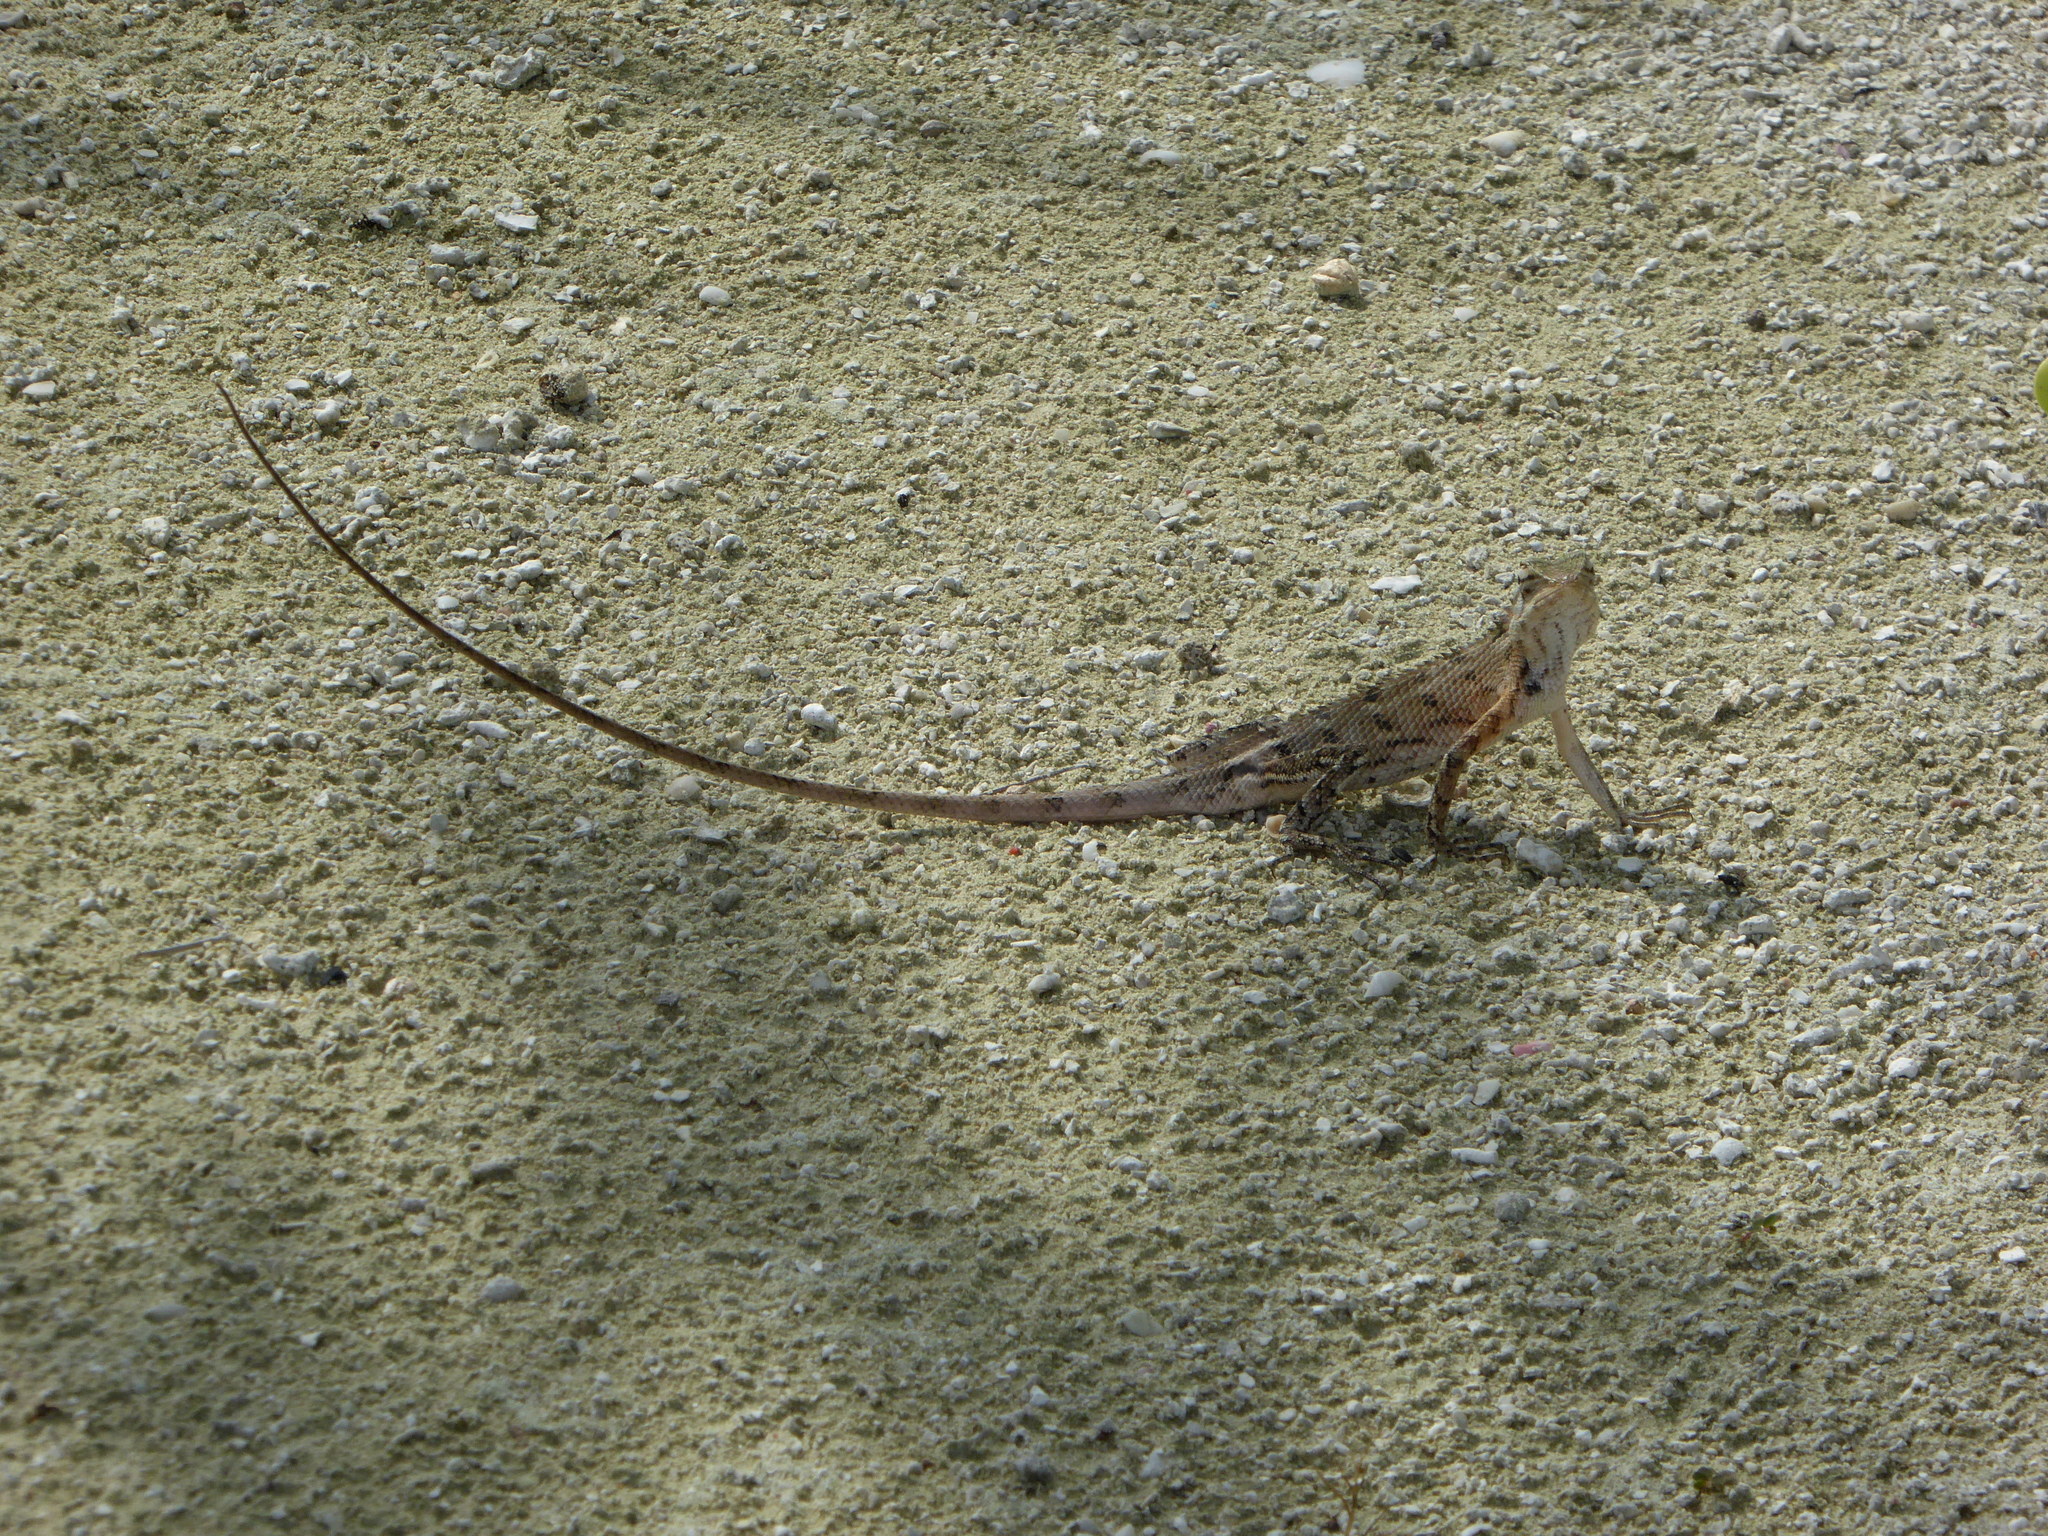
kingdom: Animalia
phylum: Chordata
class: Squamata
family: Agamidae
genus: Calotes
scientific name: Calotes versicolor
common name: Oriental garden lizard
